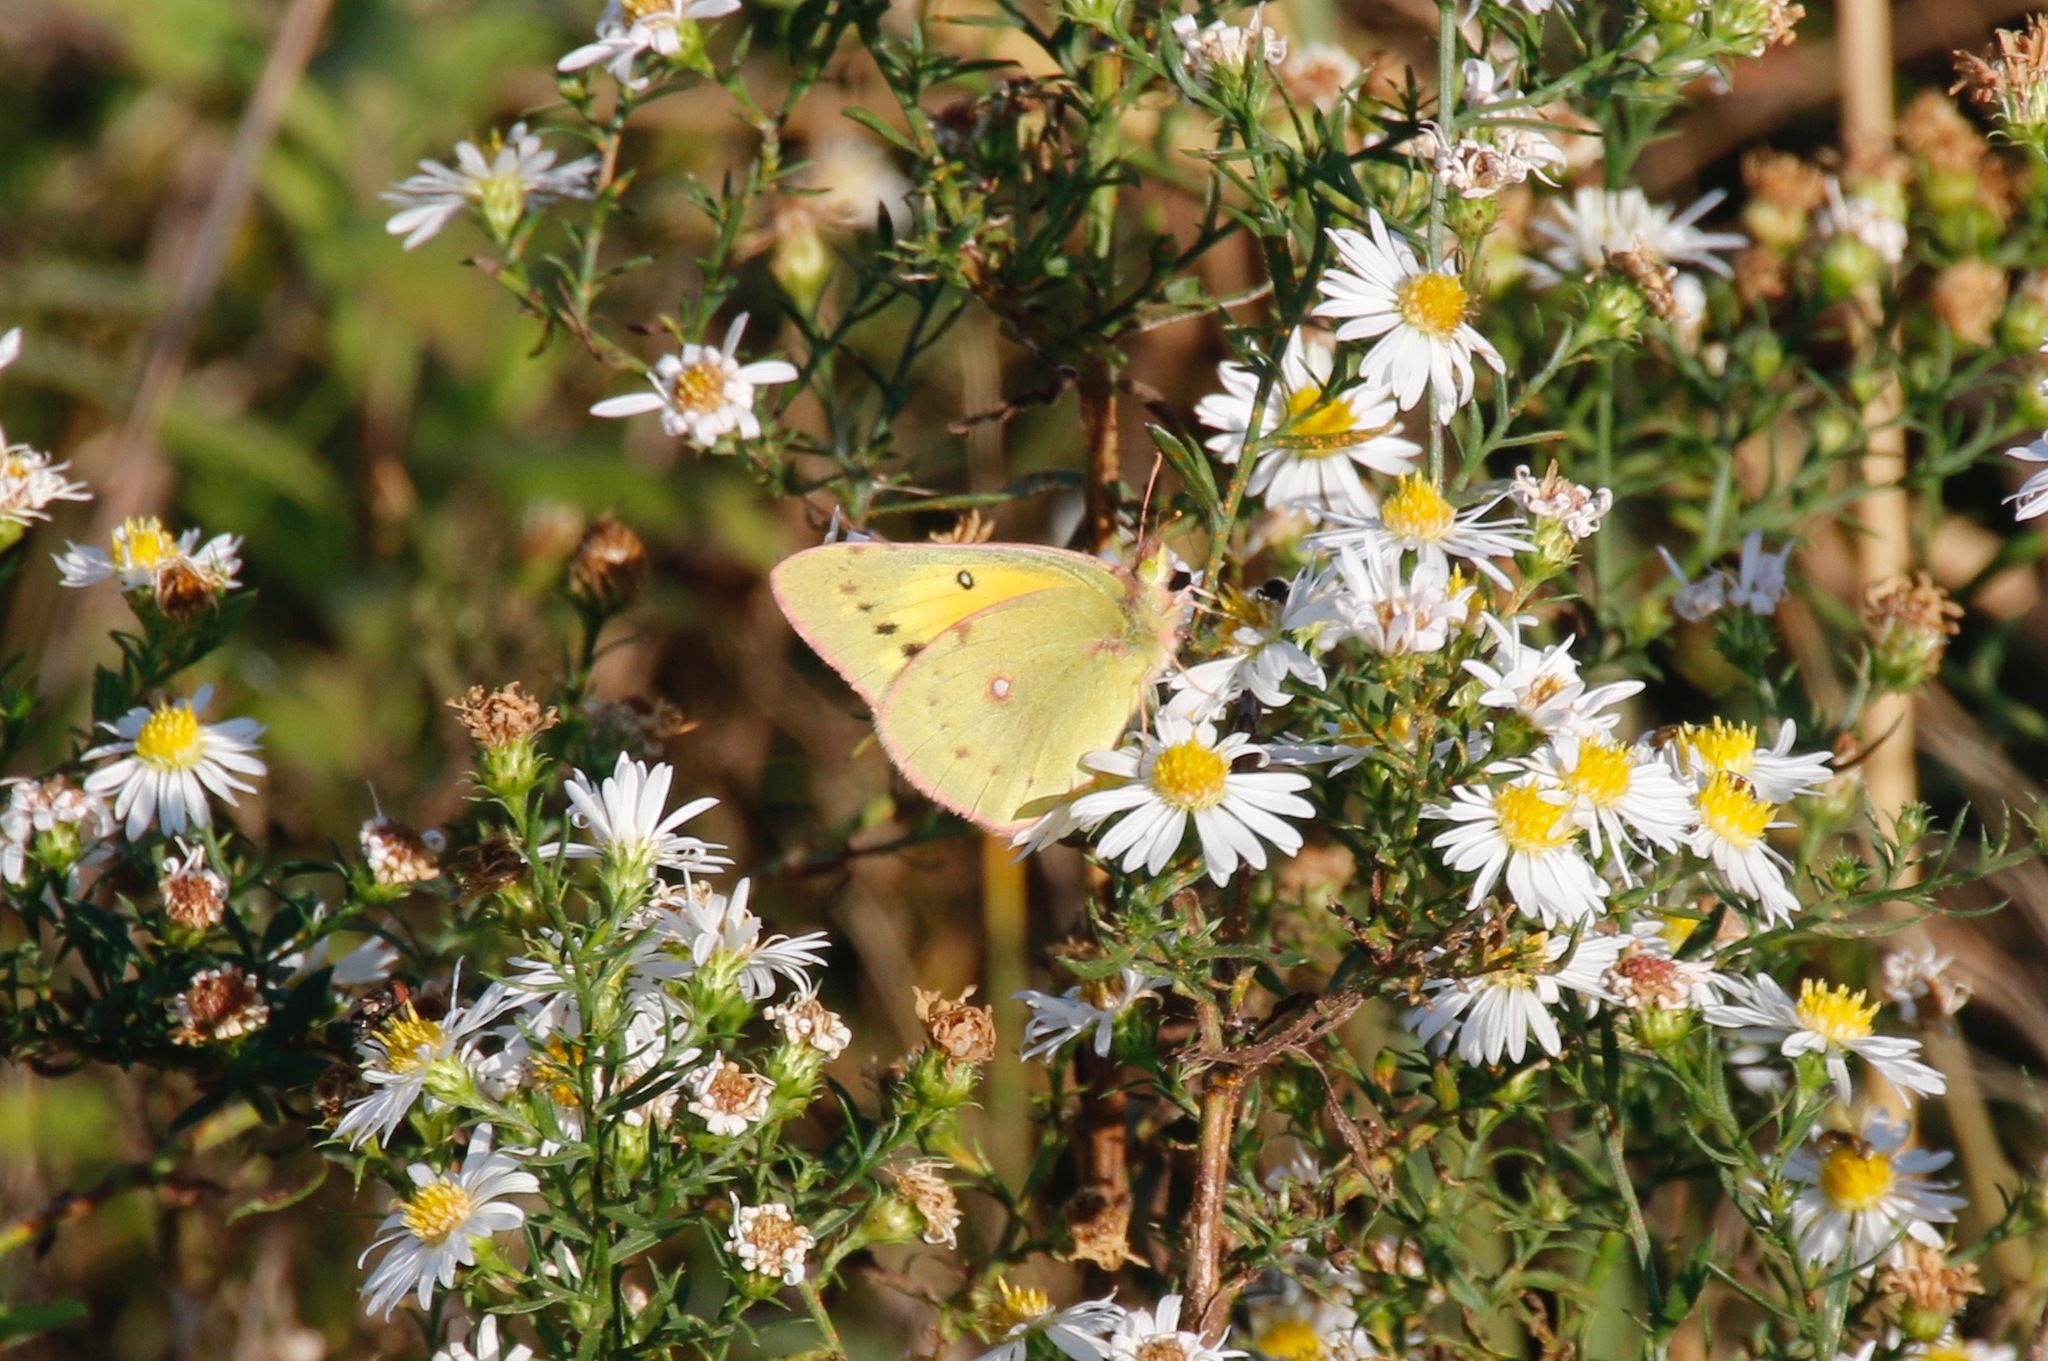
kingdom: Animalia
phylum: Arthropoda
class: Insecta
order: Lepidoptera
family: Pieridae
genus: Colias
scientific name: Colias eurytheme
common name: Alfalfa butterfly
